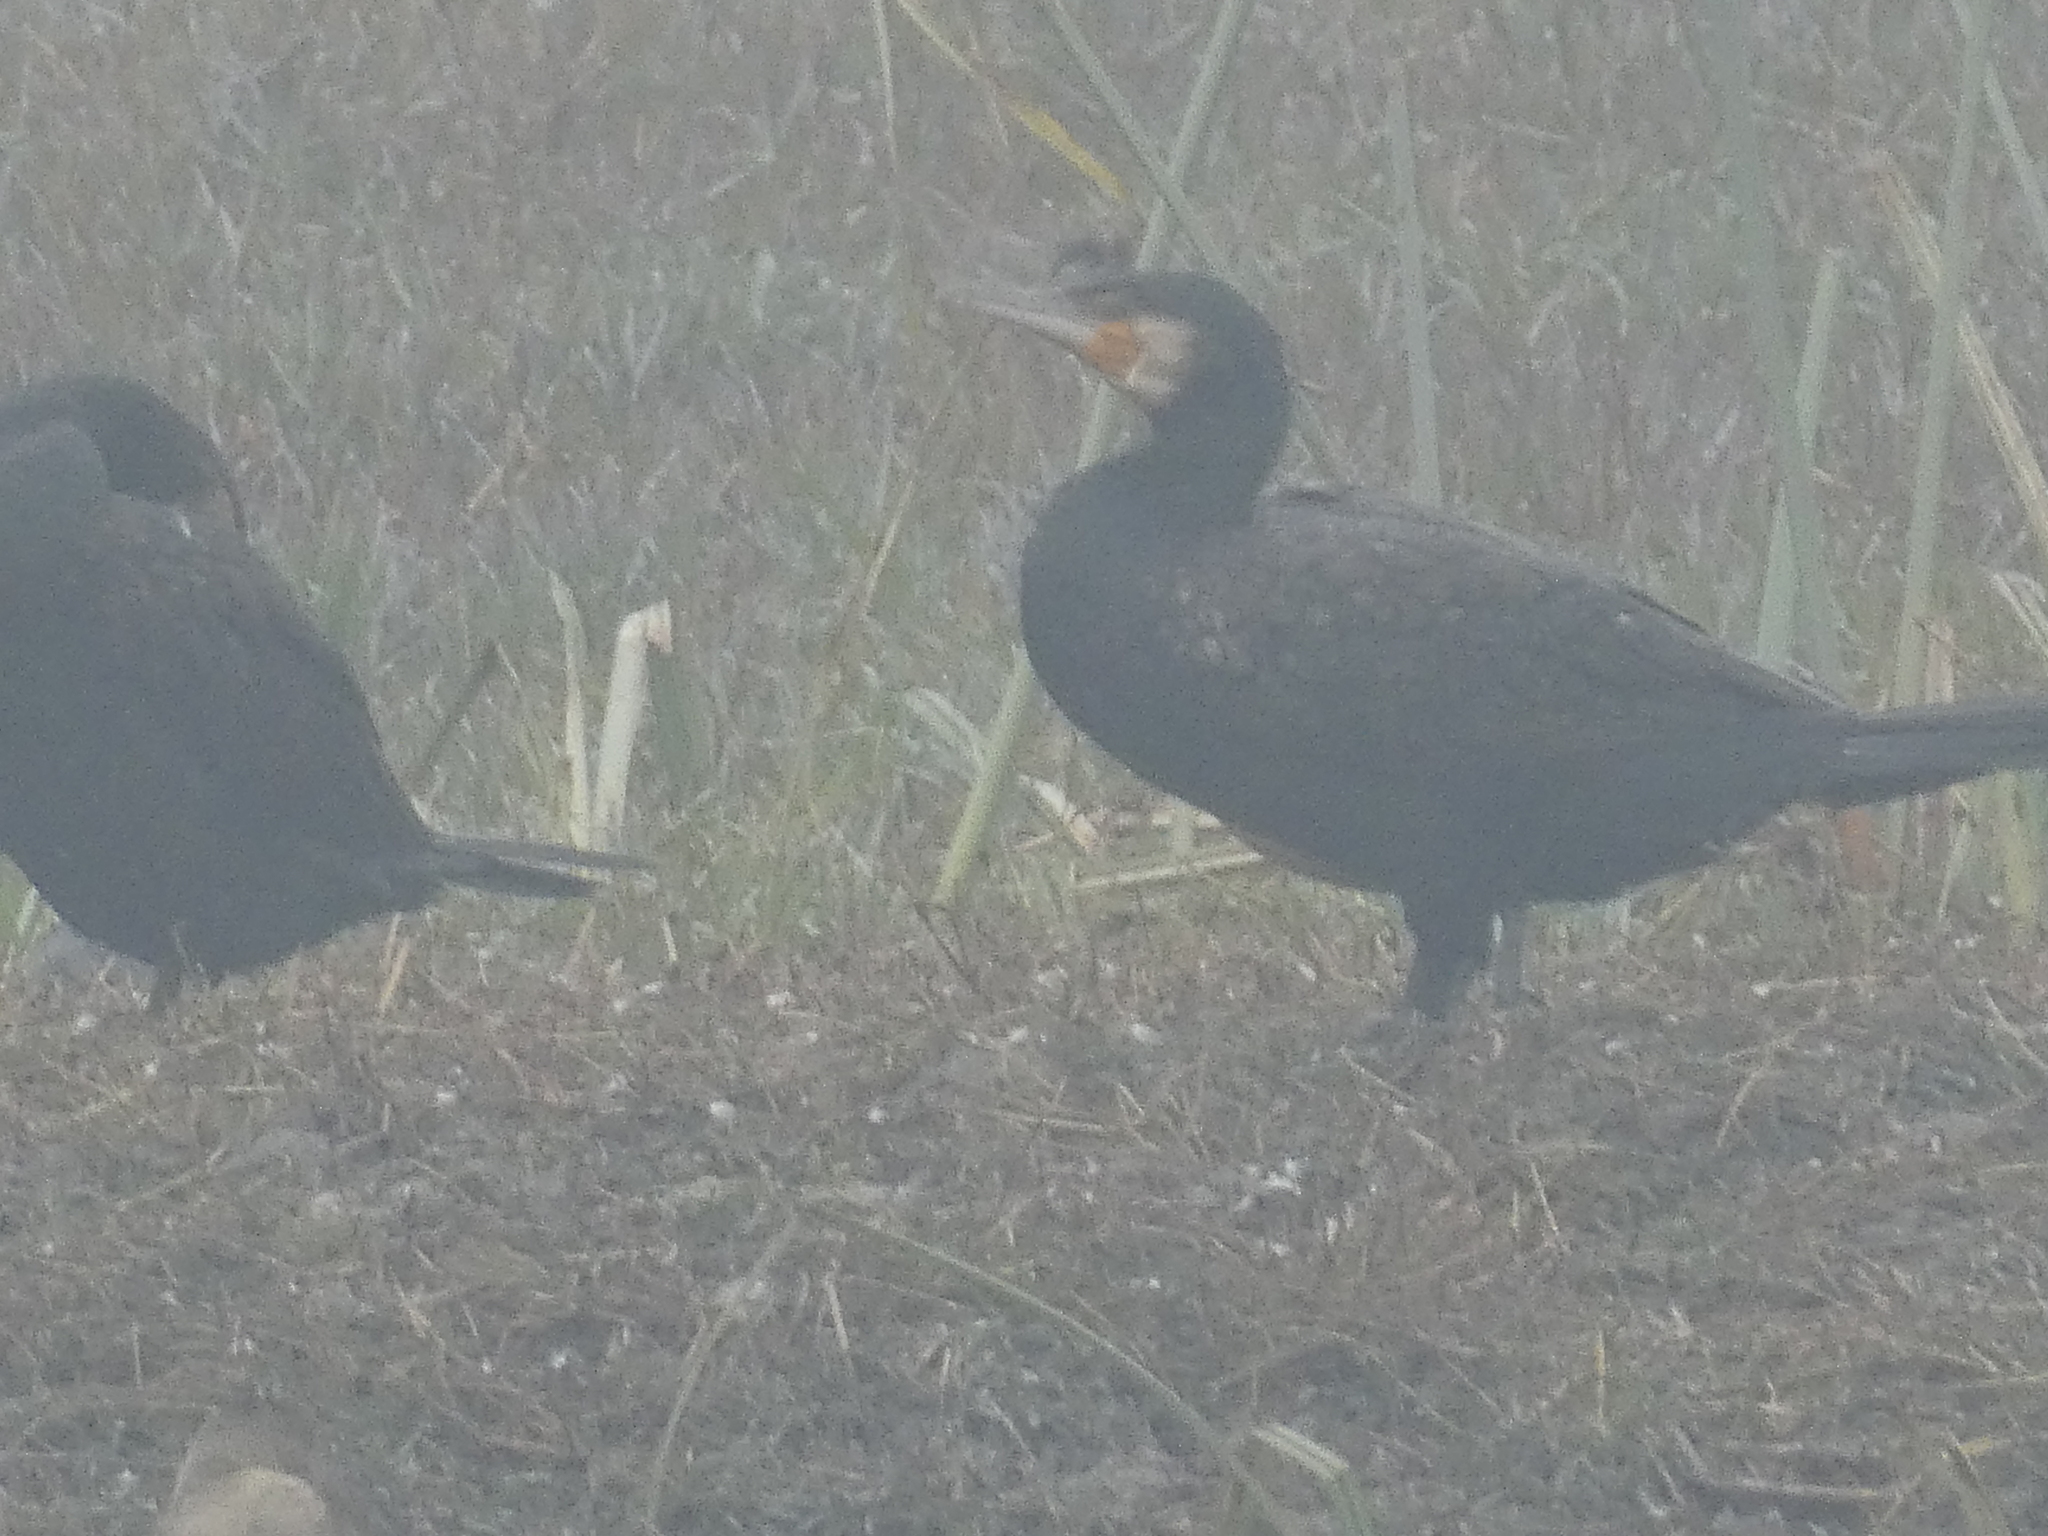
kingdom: Animalia
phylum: Chordata
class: Aves
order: Suliformes
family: Phalacrocoracidae
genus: Phalacrocorax
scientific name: Phalacrocorax carbo
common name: Great cormorant
